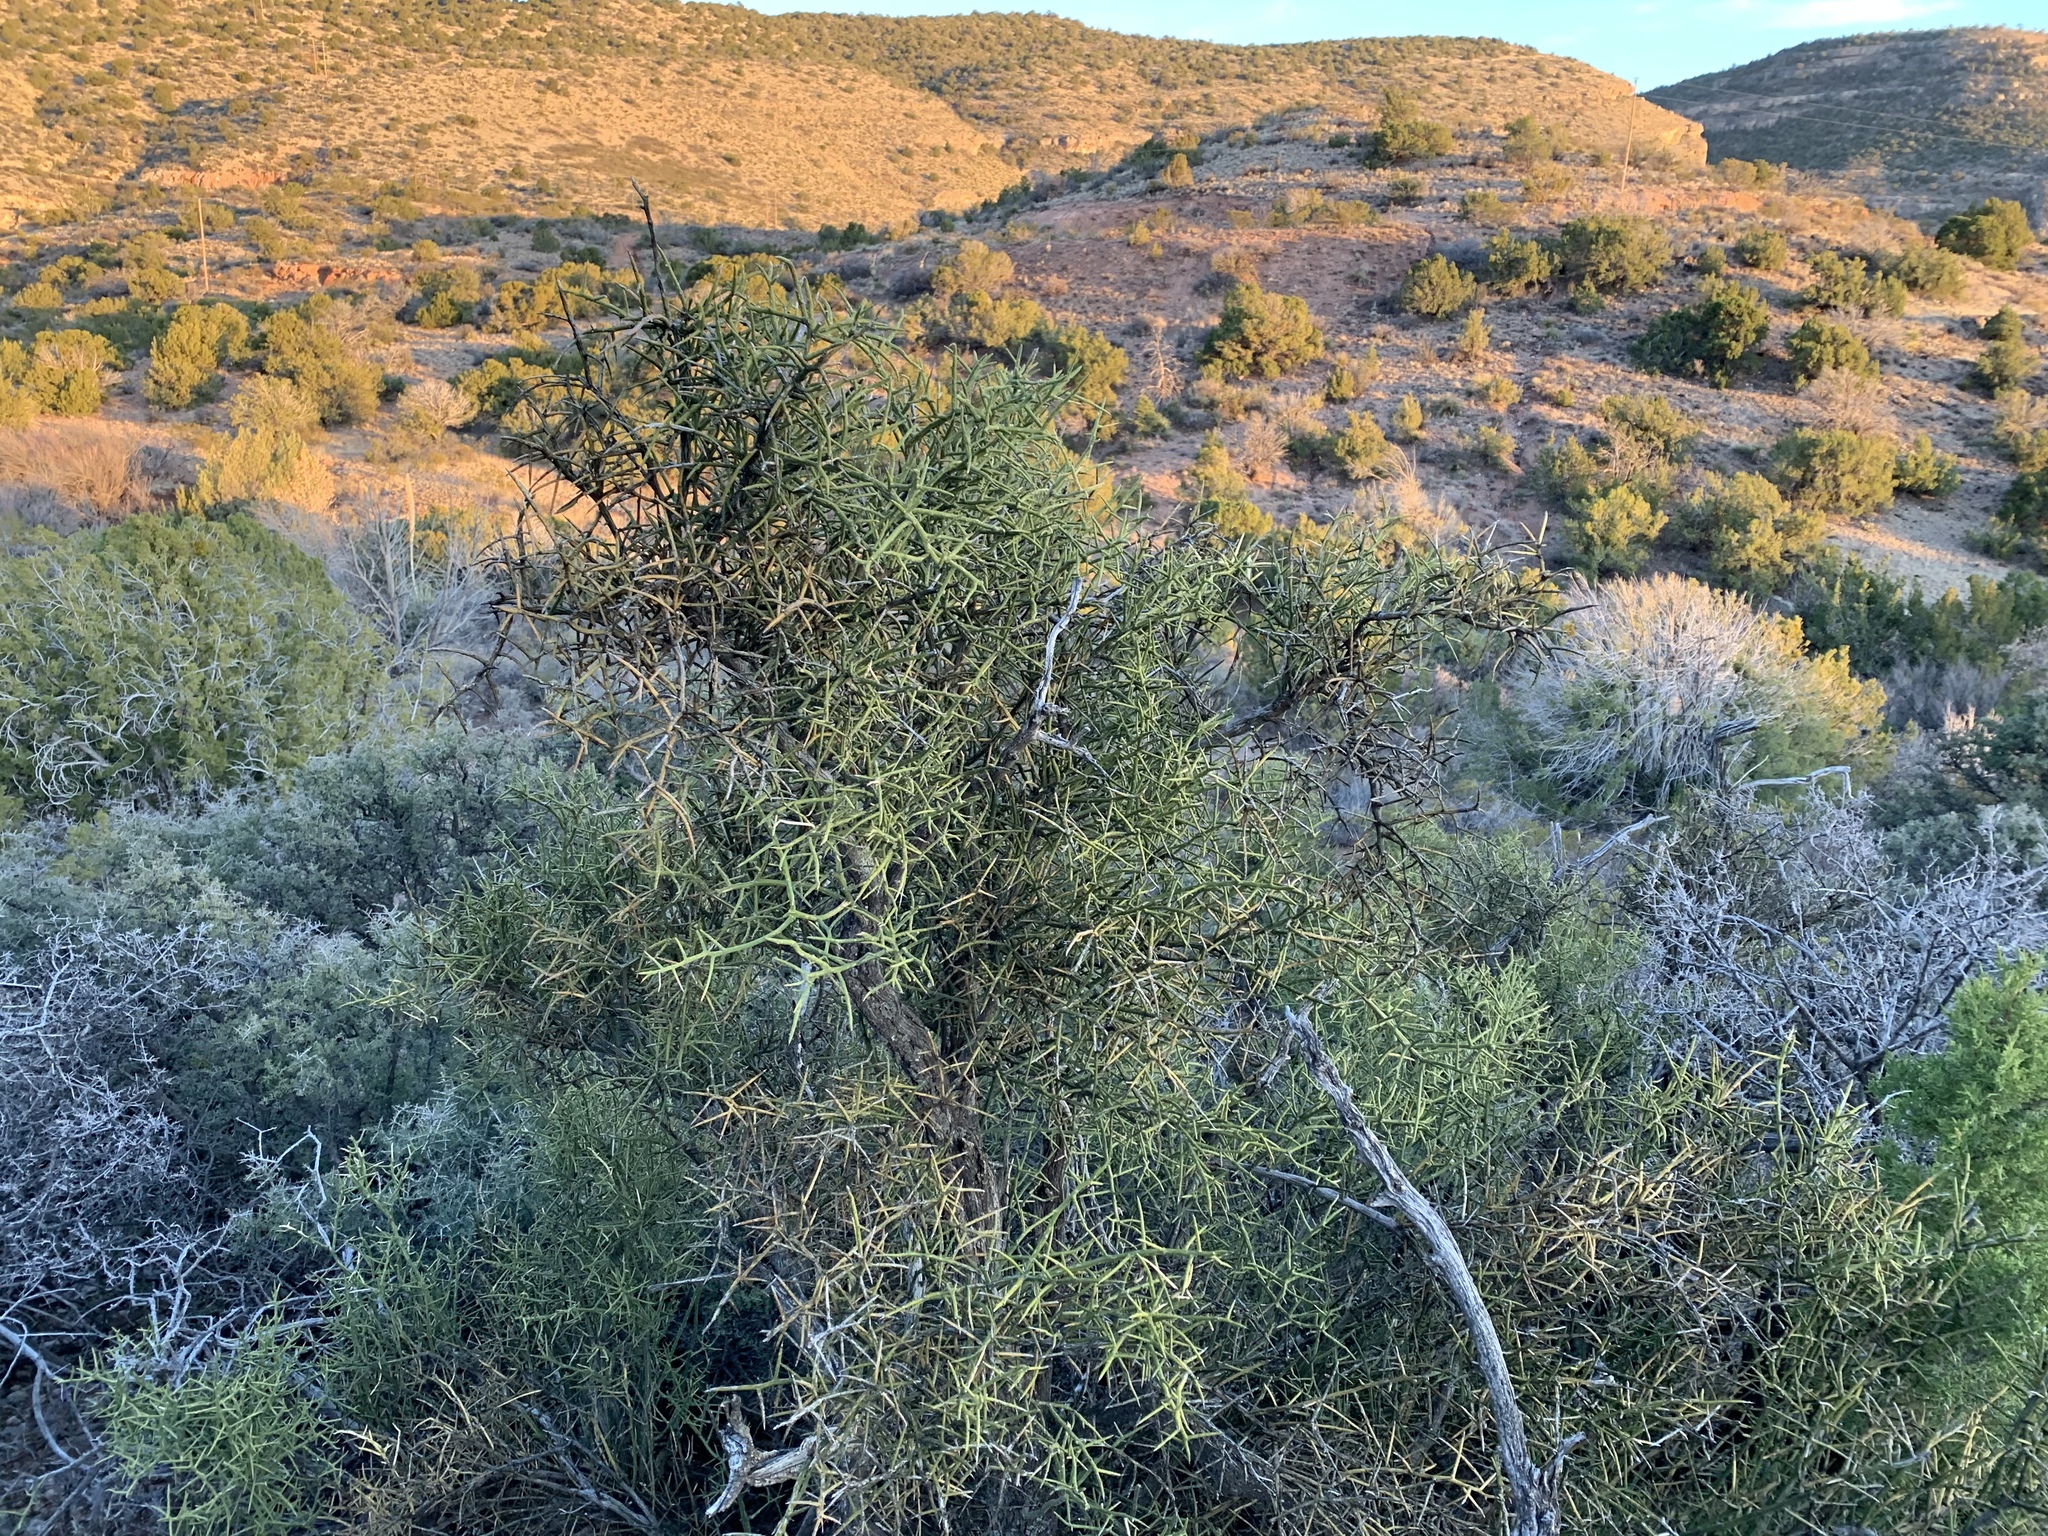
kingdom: Plantae
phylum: Tracheophyta
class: Magnoliopsida
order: Brassicales
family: Koeberliniaceae
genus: Koeberlinia
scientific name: Koeberlinia spinosa
